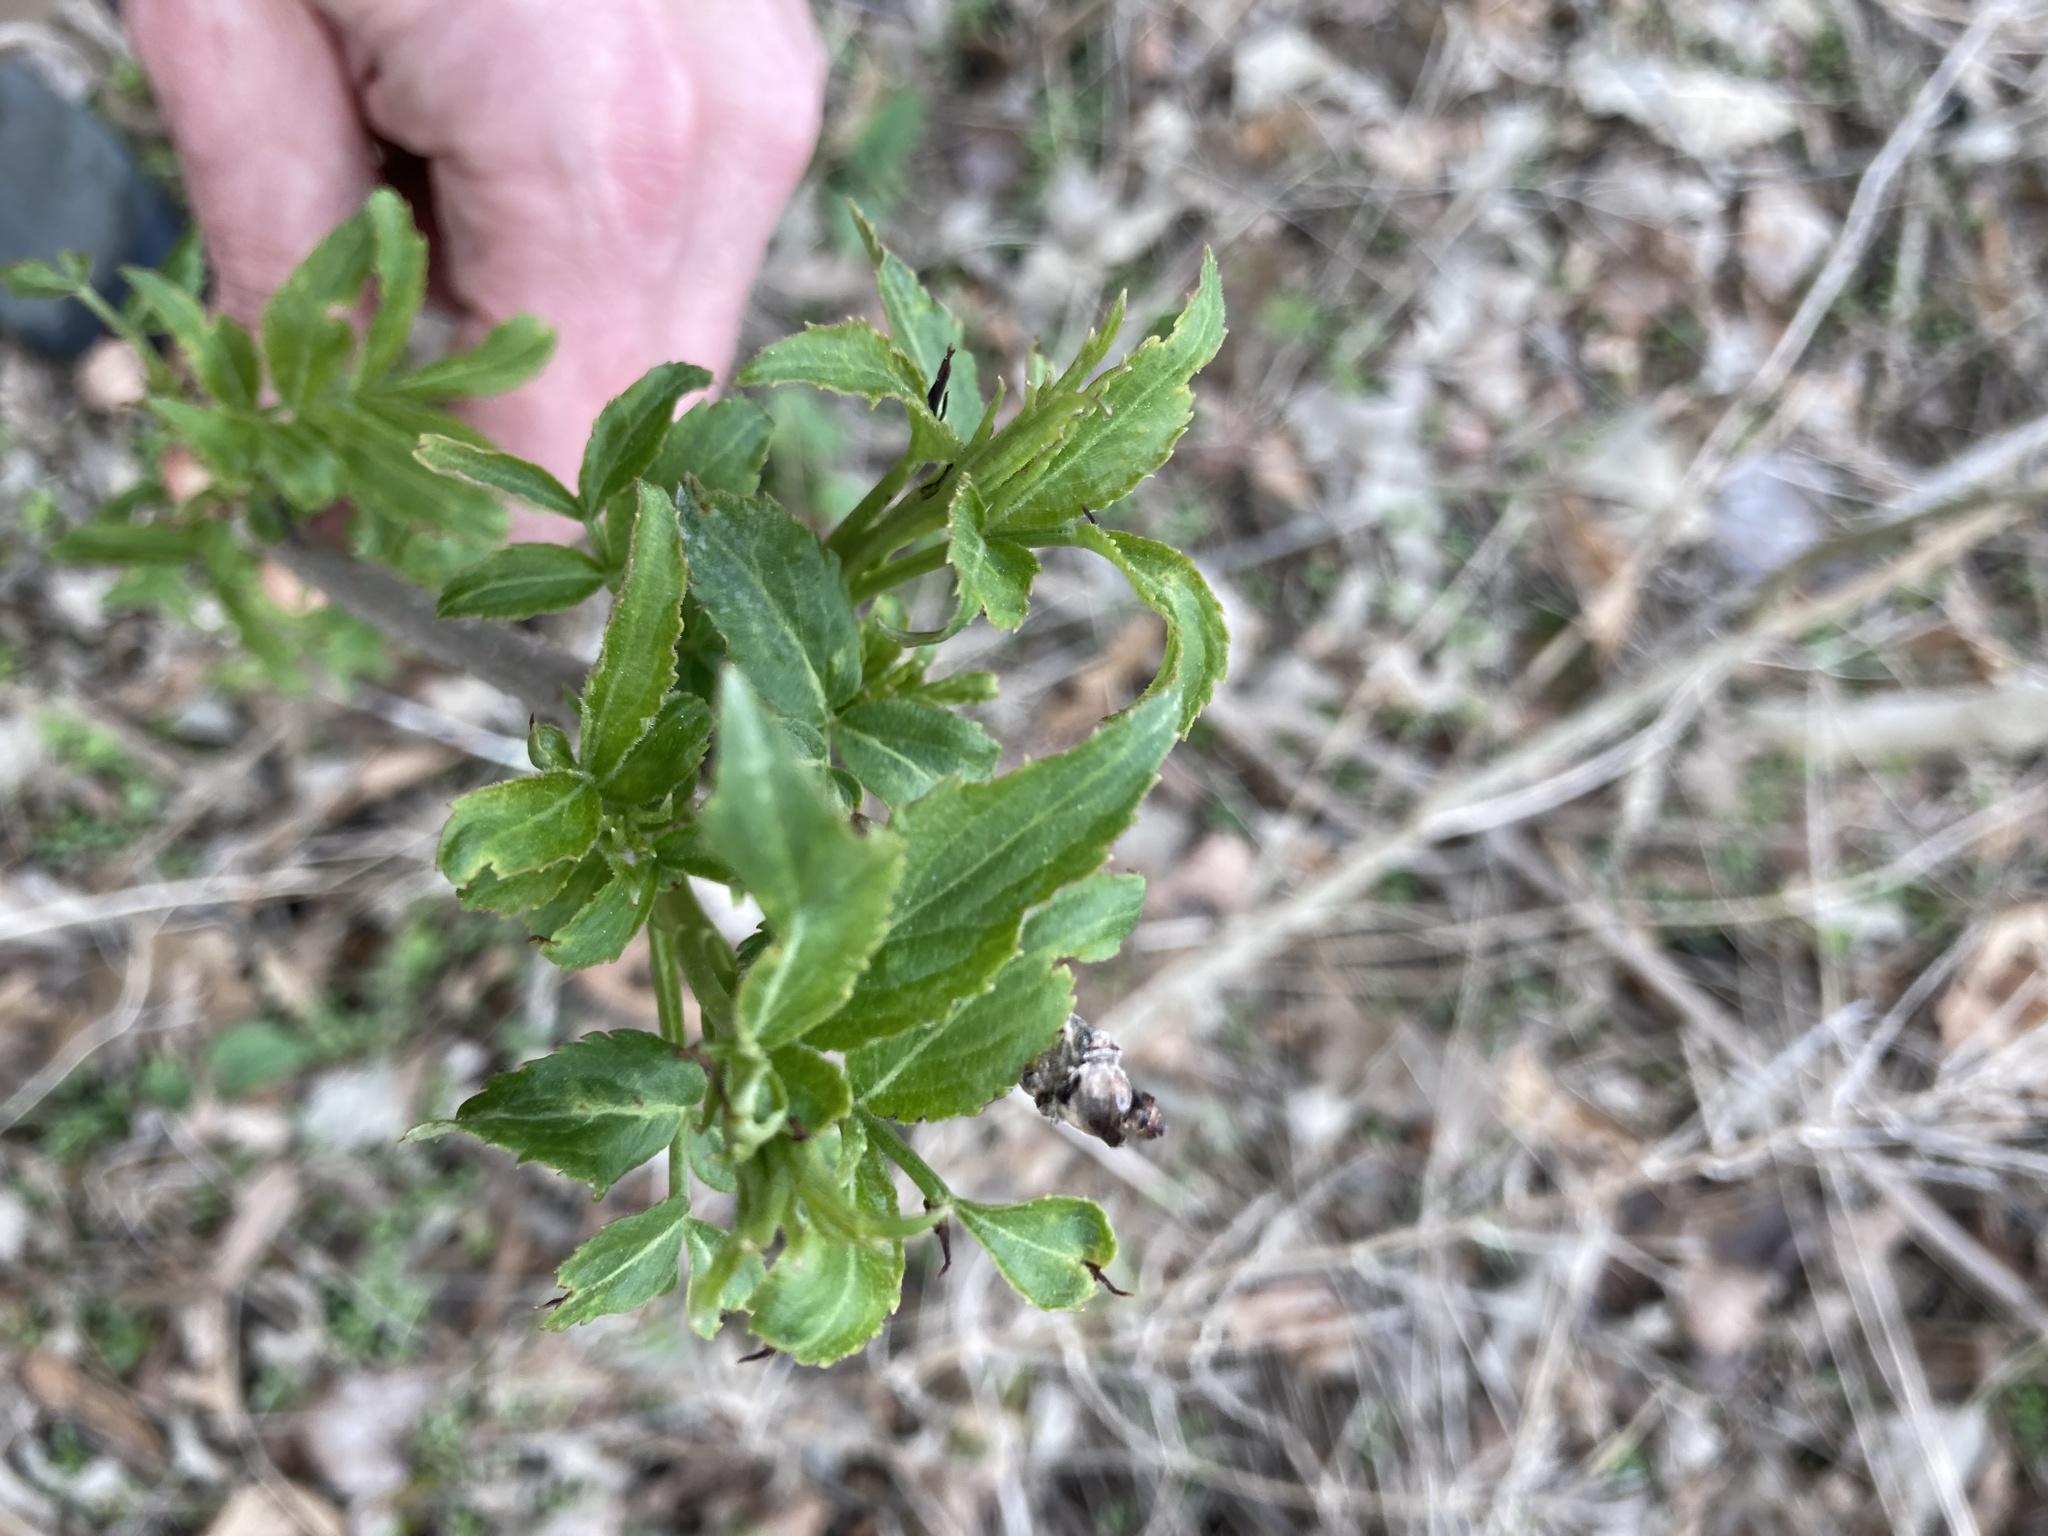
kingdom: Plantae
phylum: Tracheophyta
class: Magnoliopsida
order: Dipsacales
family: Viburnaceae
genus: Sambucus
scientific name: Sambucus canadensis
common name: American elder
